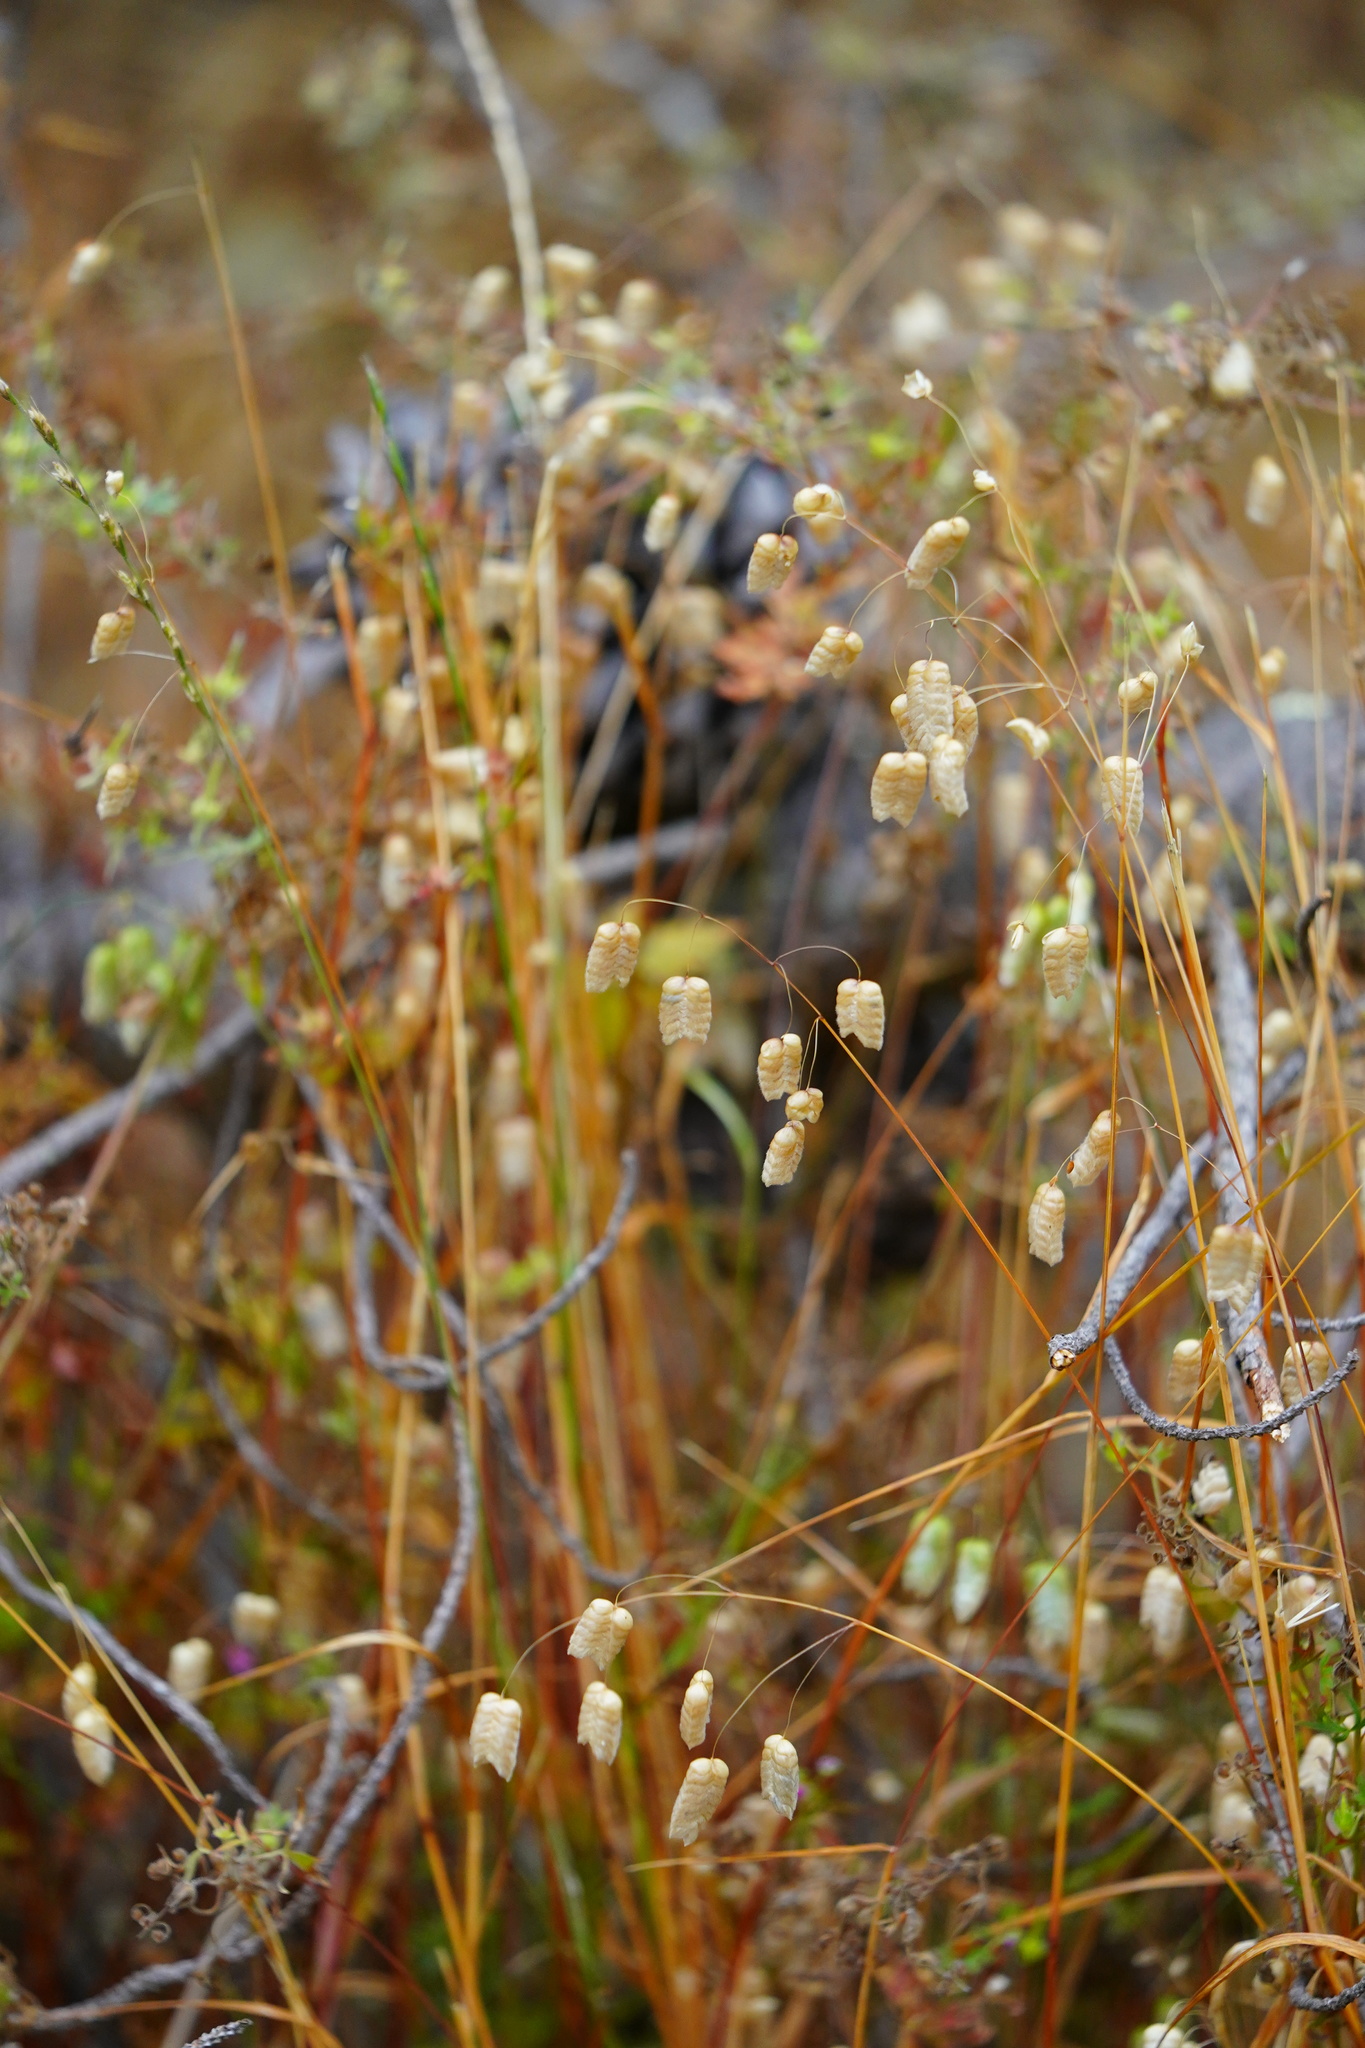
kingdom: Plantae
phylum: Tracheophyta
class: Liliopsida
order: Poales
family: Poaceae
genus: Briza
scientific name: Briza maxima
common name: Big quakinggrass
